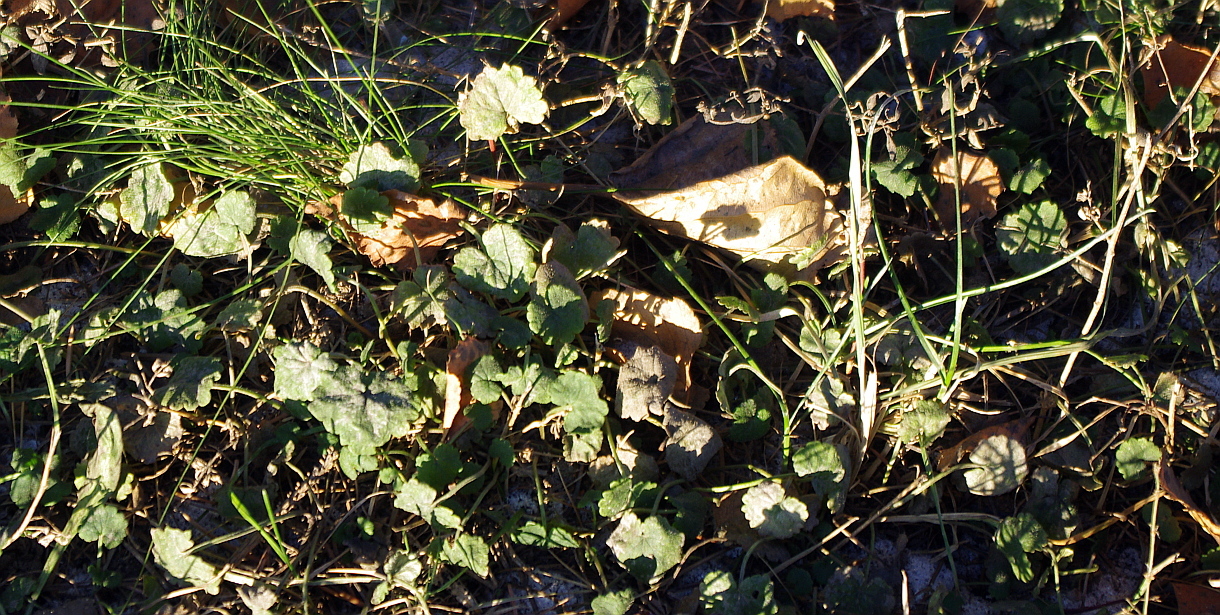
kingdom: Plantae
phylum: Tracheophyta
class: Magnoliopsida
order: Lamiales
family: Lamiaceae
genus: Glechoma
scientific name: Glechoma hederacea
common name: Ground ivy
